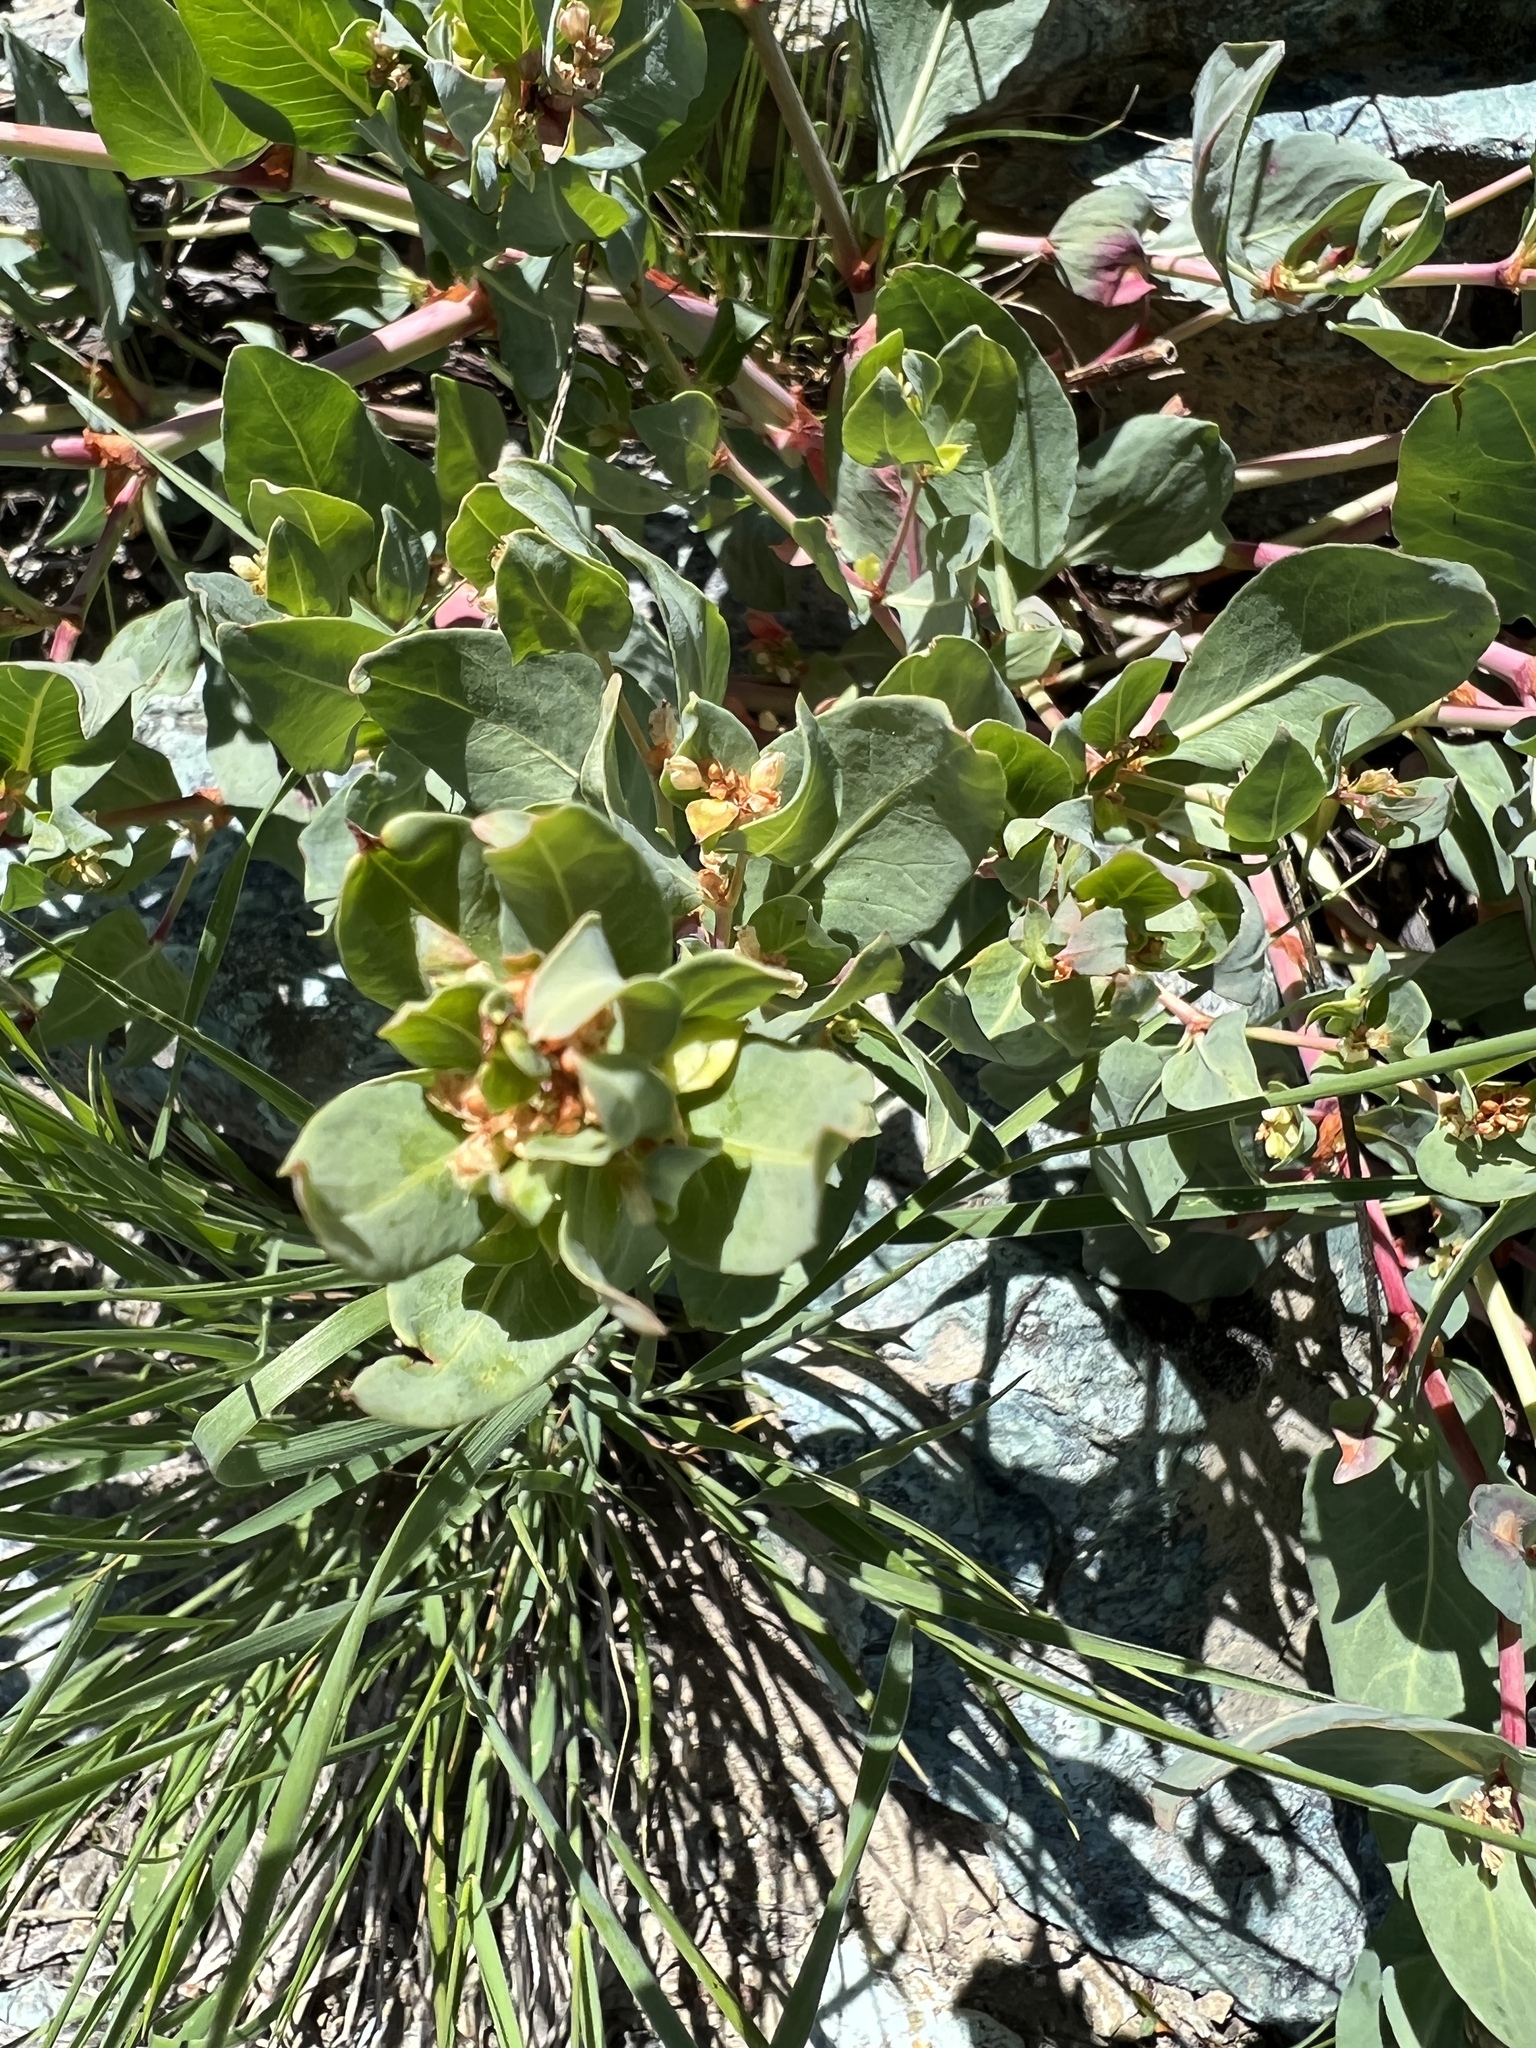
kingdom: Plantae
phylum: Tracheophyta
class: Magnoliopsida
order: Caryophyllales
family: Polygonaceae
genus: Koenigia
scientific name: Koenigia davisiae
